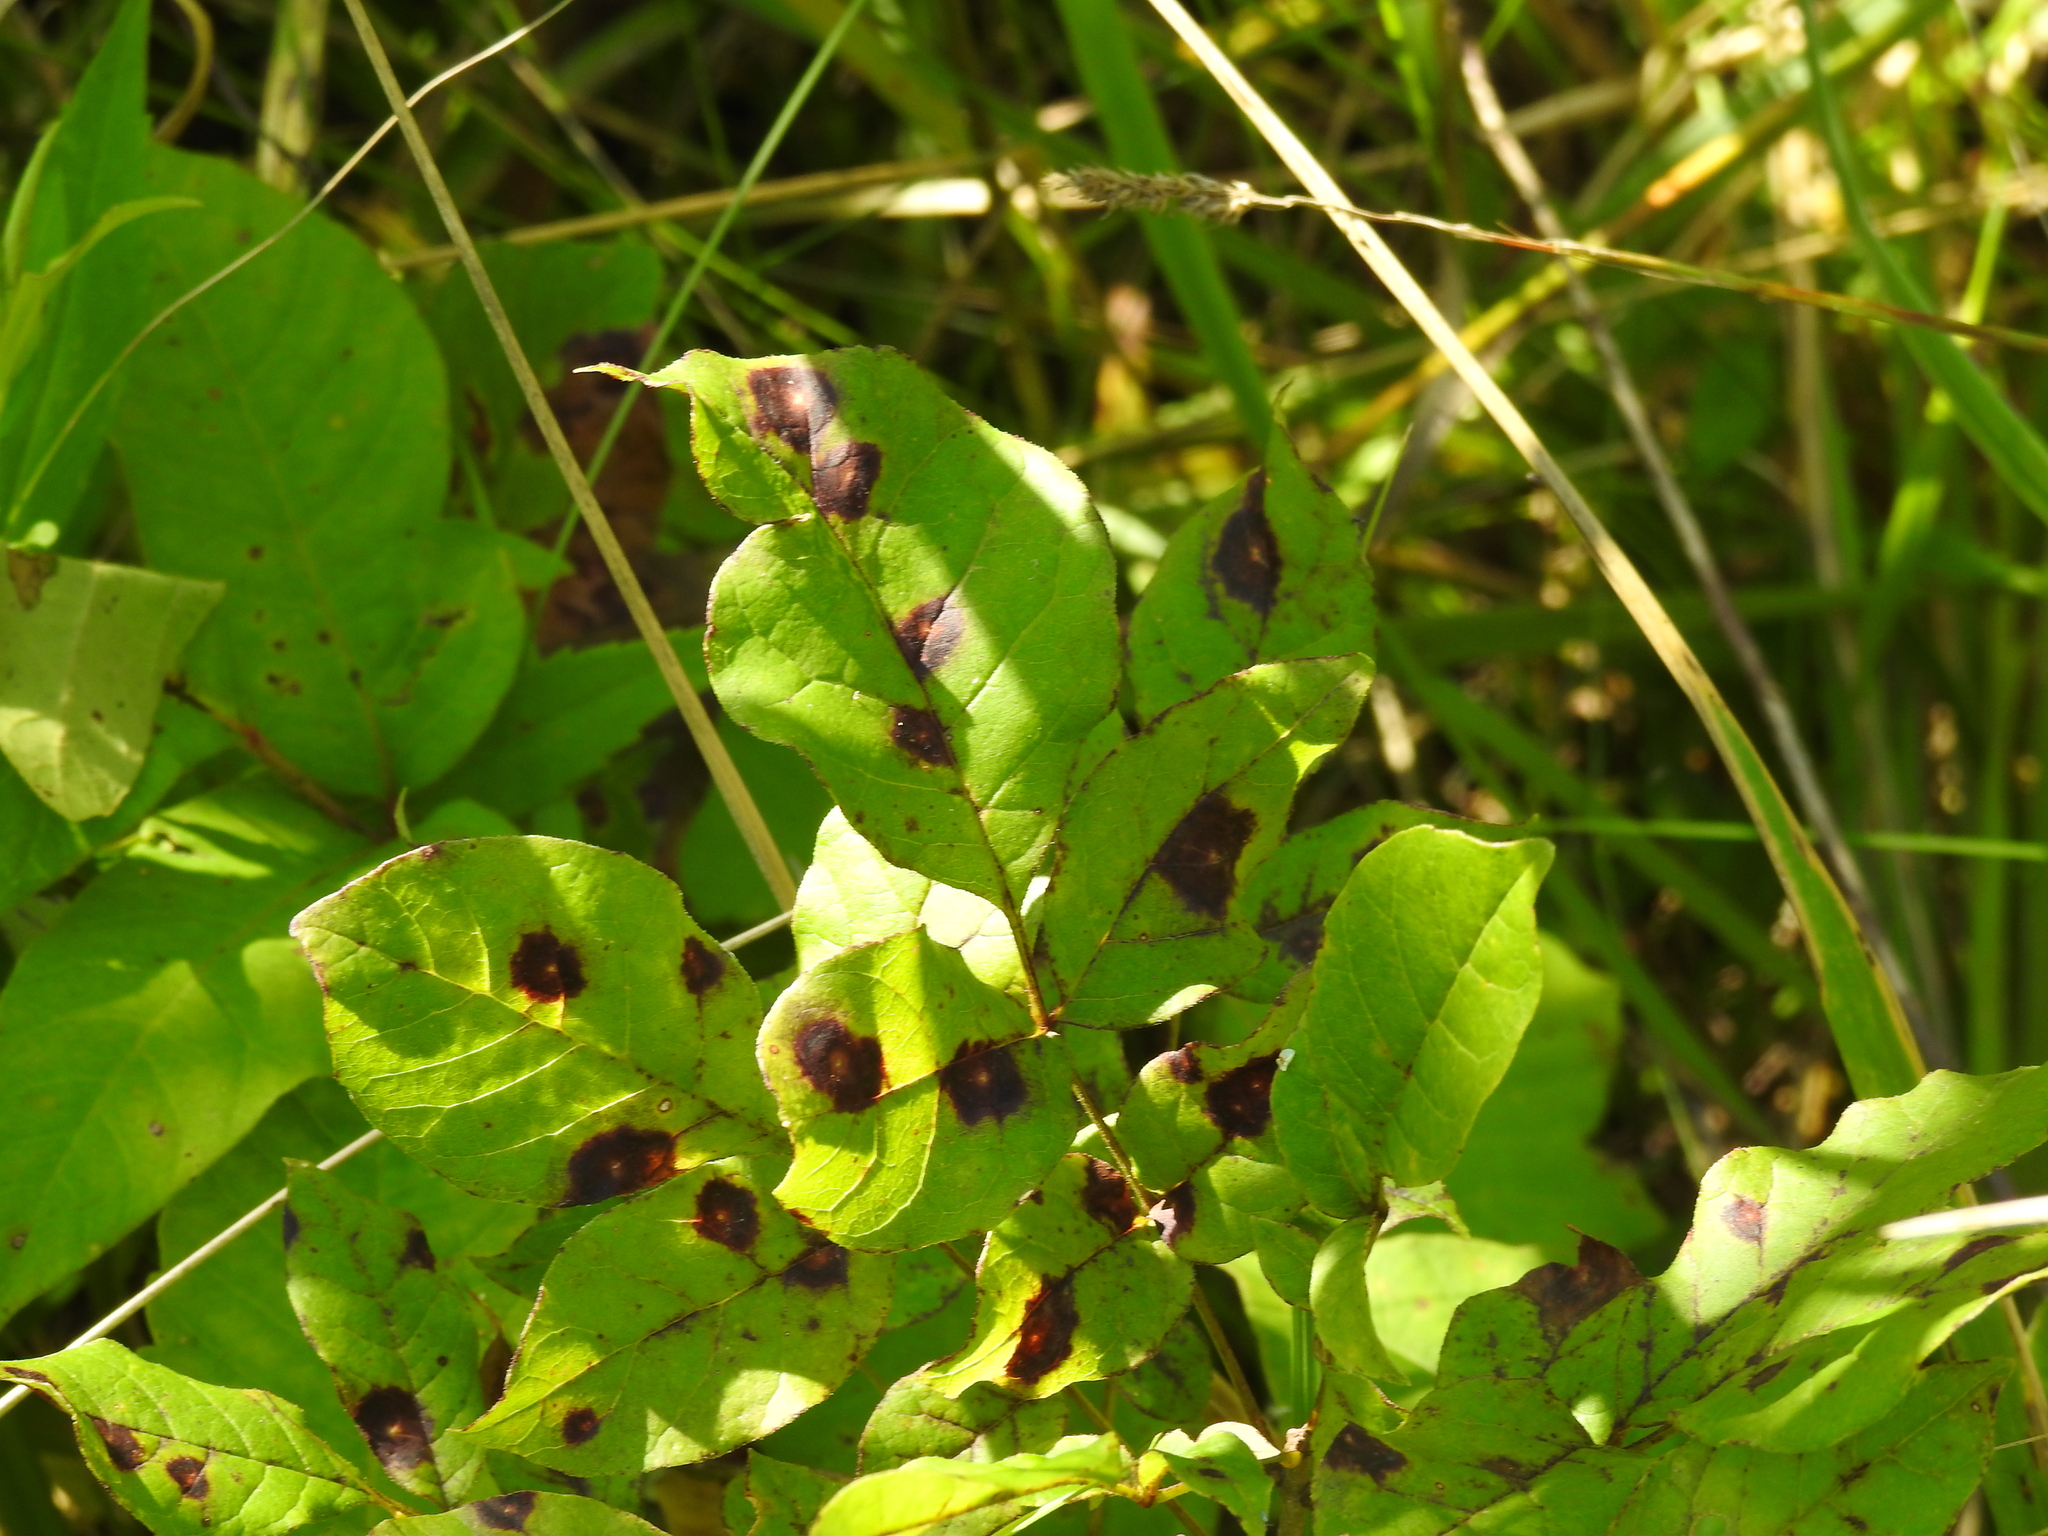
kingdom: Fungi
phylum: Ascomycota
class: Dothideomycetes
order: Mycosphaerellales
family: Mycosphaerellaceae
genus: Mycosphaerella
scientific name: Mycosphaerella fraxinicola
